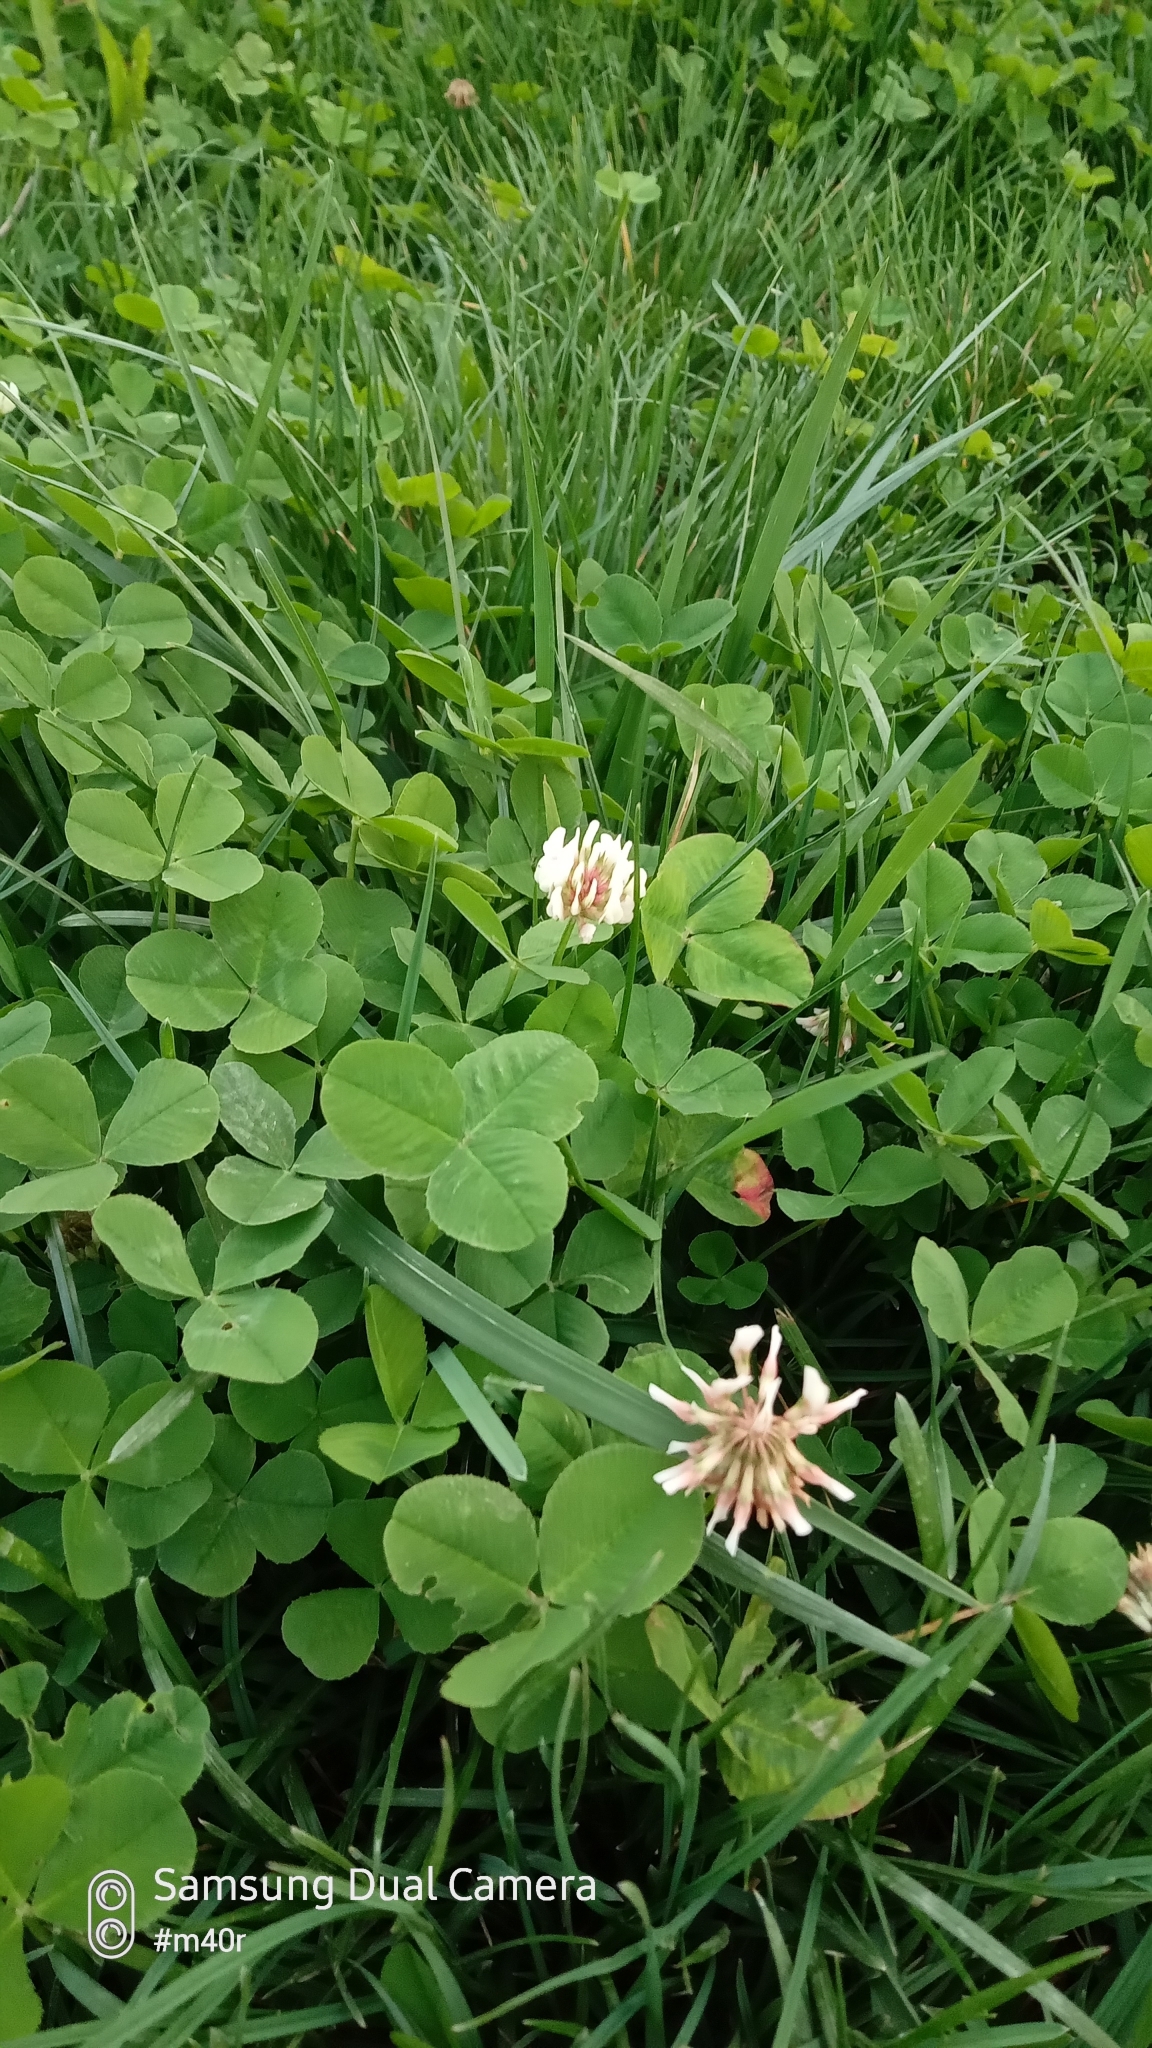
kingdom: Plantae
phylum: Tracheophyta
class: Magnoliopsida
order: Fabales
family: Fabaceae
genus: Trifolium
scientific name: Trifolium repens
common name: White clover
